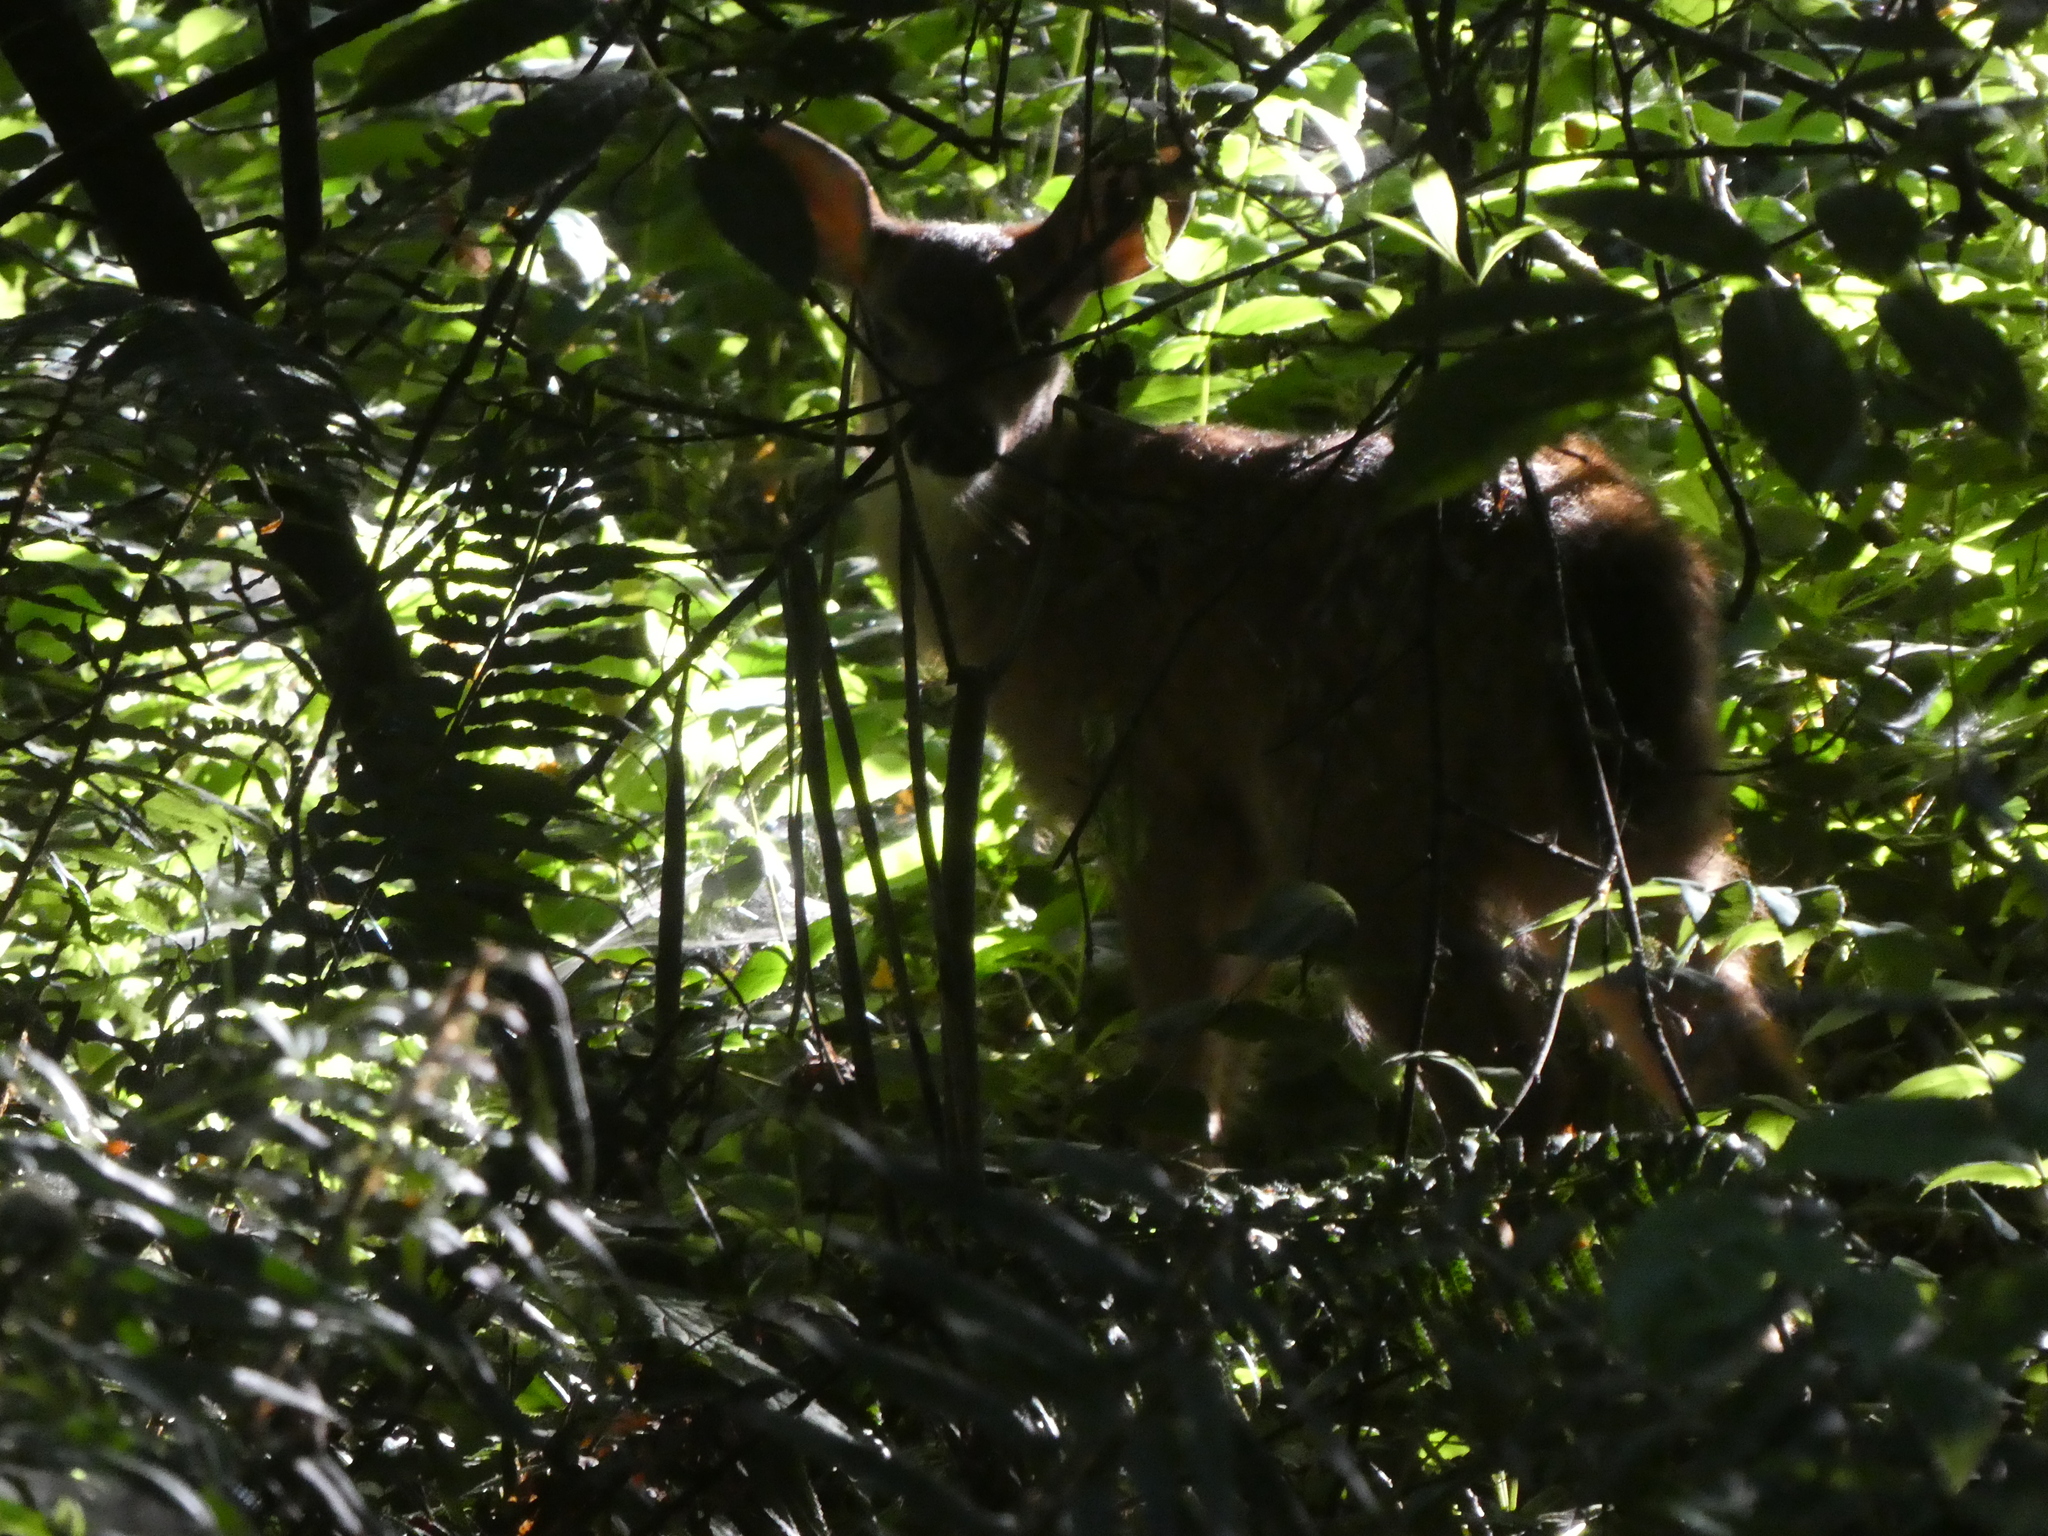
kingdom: Animalia
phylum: Chordata
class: Mammalia
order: Artiodactyla
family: Cervidae
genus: Odocoileus
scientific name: Odocoileus hemionus
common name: Mule deer
